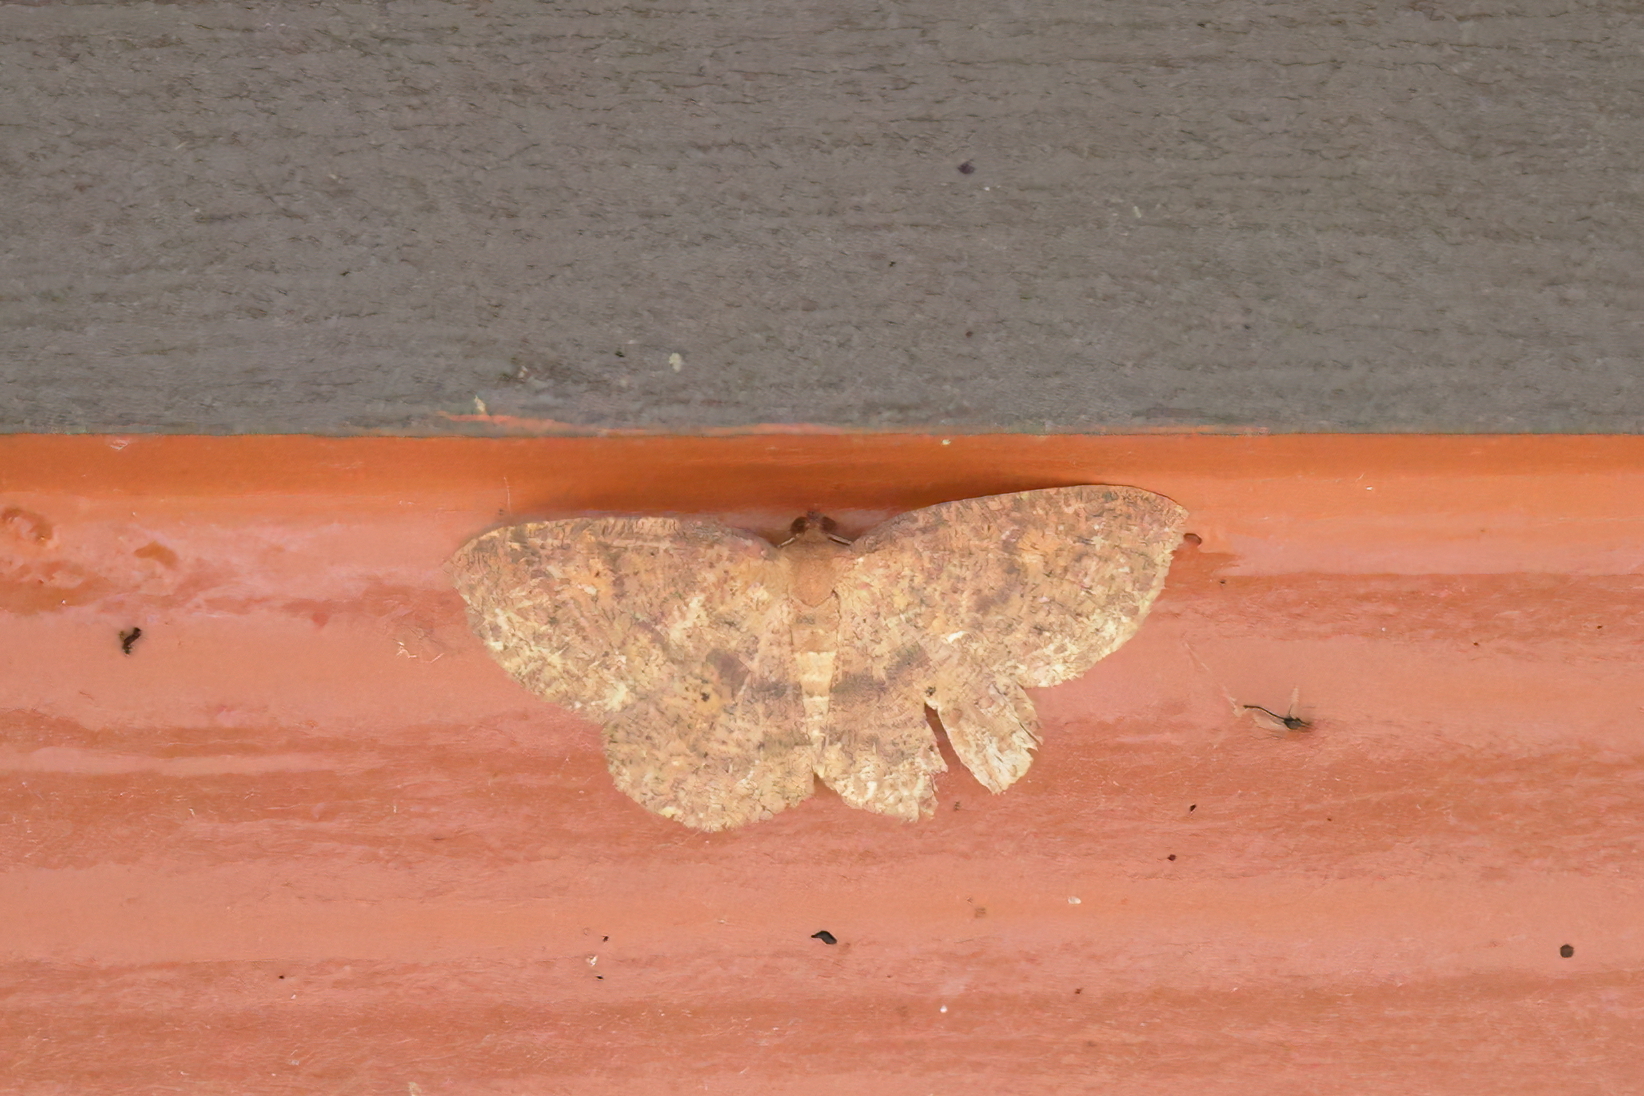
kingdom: Animalia
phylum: Arthropoda
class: Insecta
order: Lepidoptera
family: Geometridae
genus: Ilexia
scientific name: Ilexia intractata
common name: Black-dotted ruddy moth
